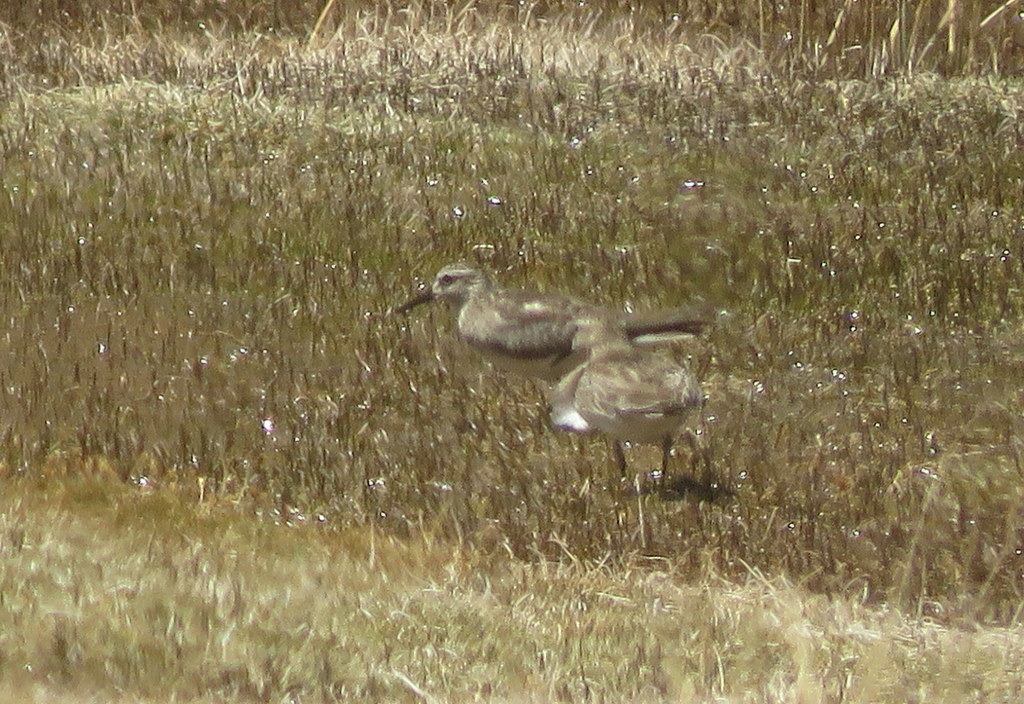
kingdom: Animalia
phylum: Chordata
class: Aves
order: Charadriiformes
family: Scolopacidae
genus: Calidris
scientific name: Calidris bairdii
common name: Baird's sandpiper
